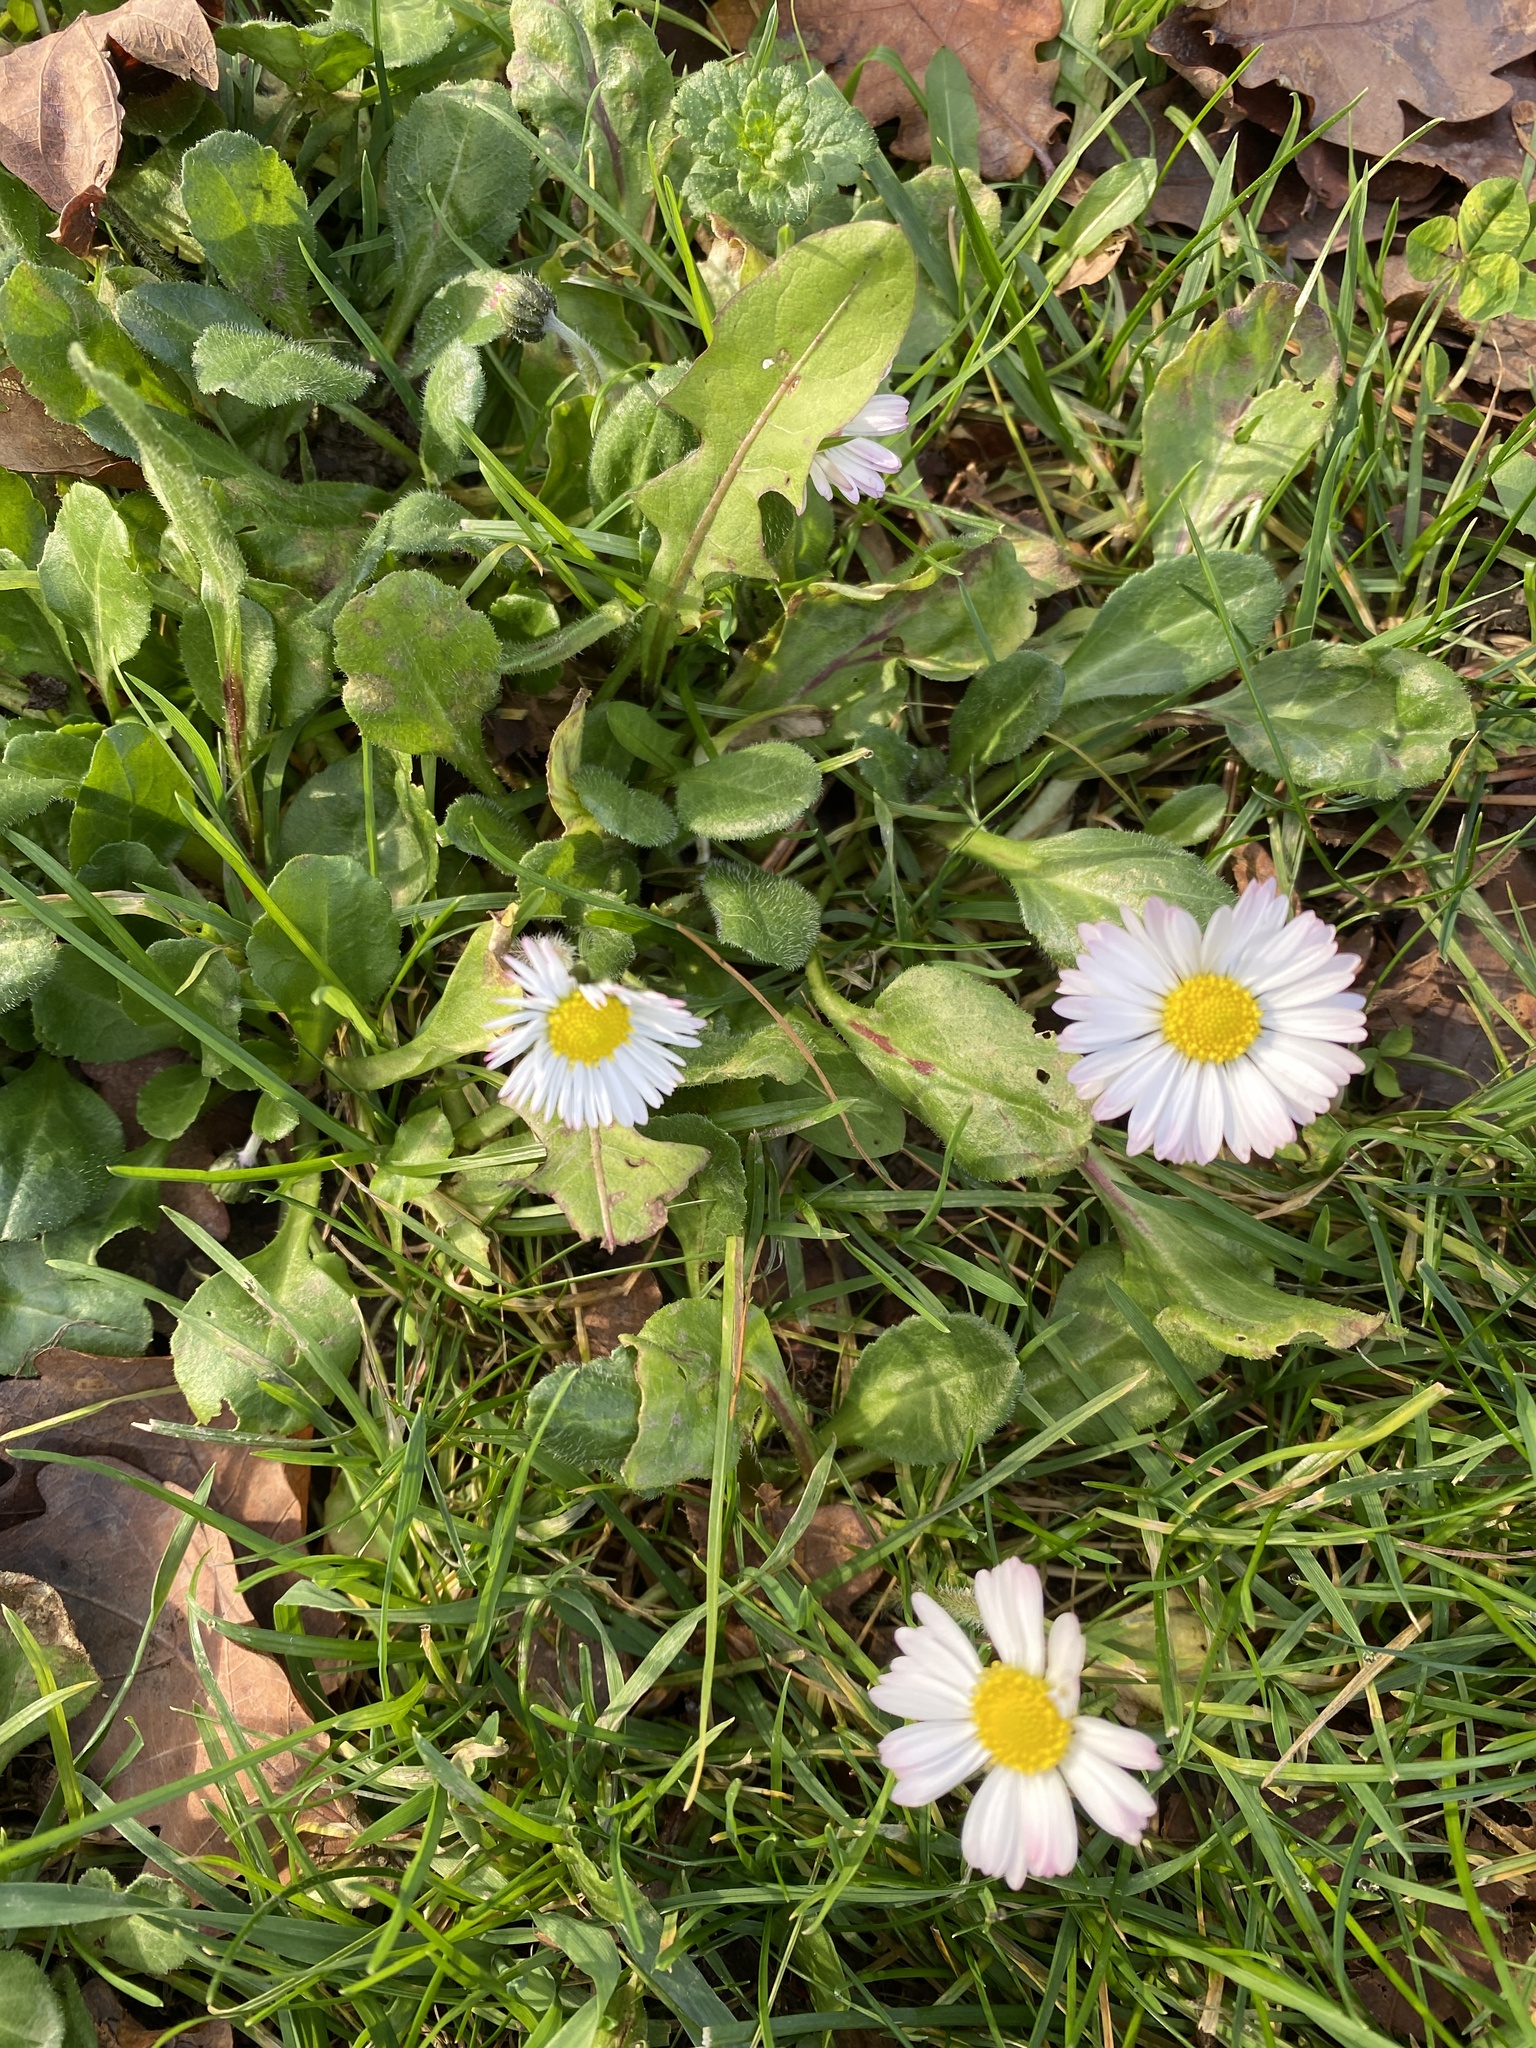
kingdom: Plantae
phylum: Tracheophyta
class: Magnoliopsida
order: Asterales
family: Asteraceae
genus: Bellis
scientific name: Bellis perennis
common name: Lawndaisy
